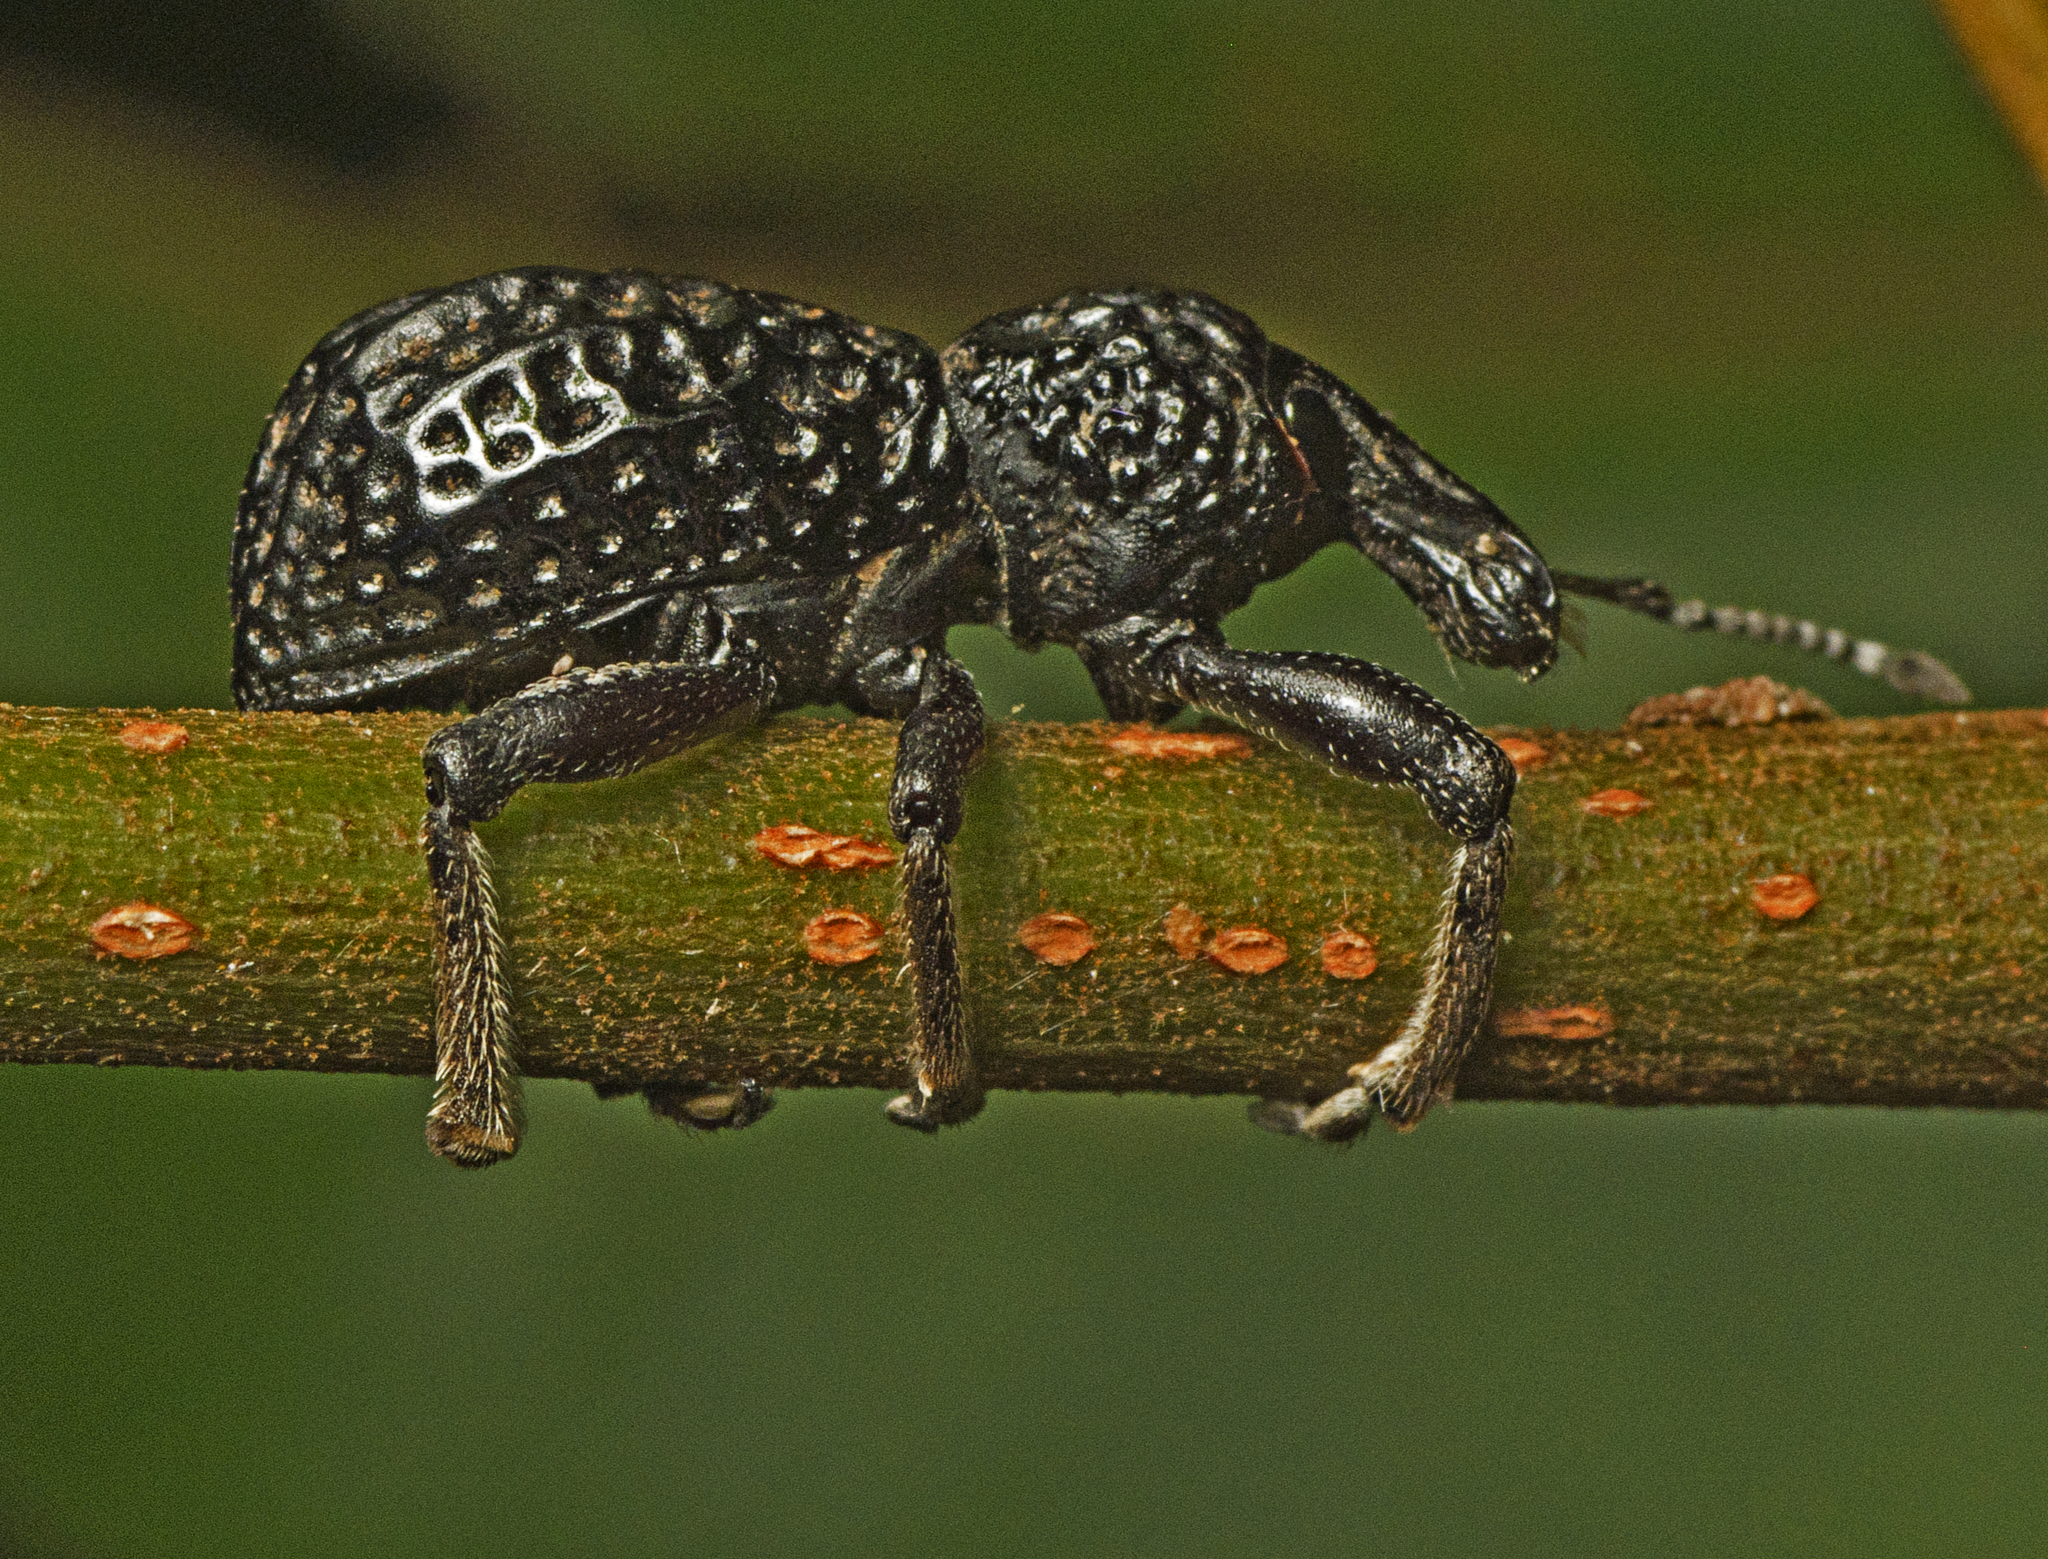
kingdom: Animalia
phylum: Arthropoda
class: Insecta
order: Coleoptera
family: Curculionidae
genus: Zymaus
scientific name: Zymaus angustus
